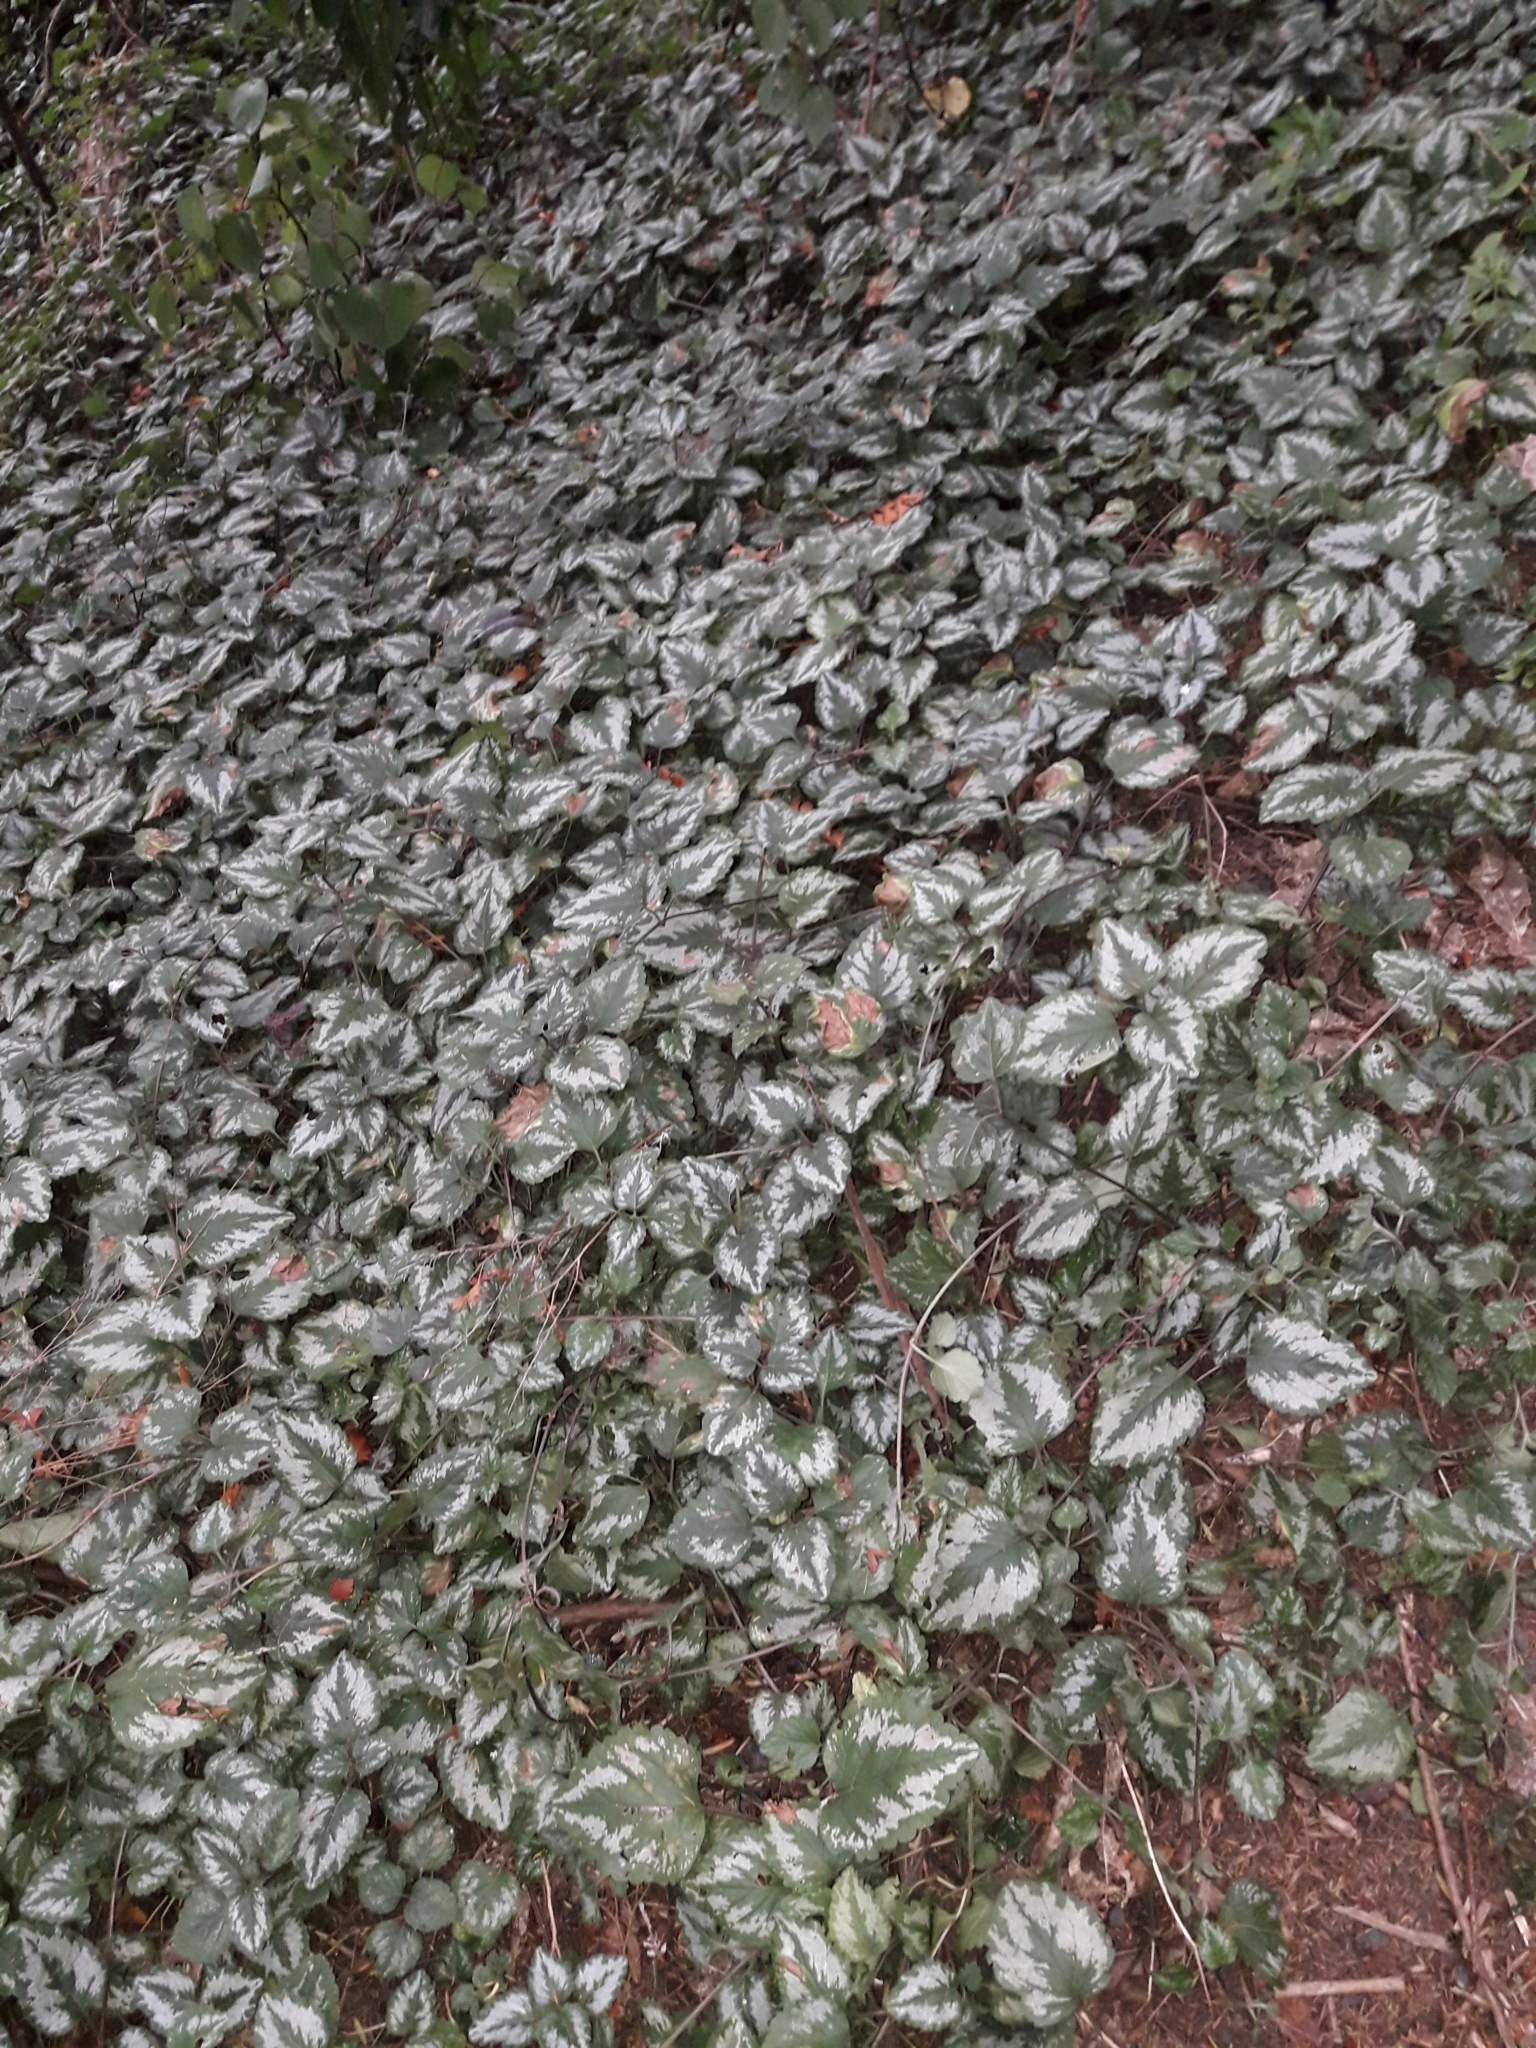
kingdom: Plantae
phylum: Tracheophyta
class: Magnoliopsida
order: Lamiales
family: Lamiaceae
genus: Lamium
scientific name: Lamium galeobdolon
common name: Yellow archangel
